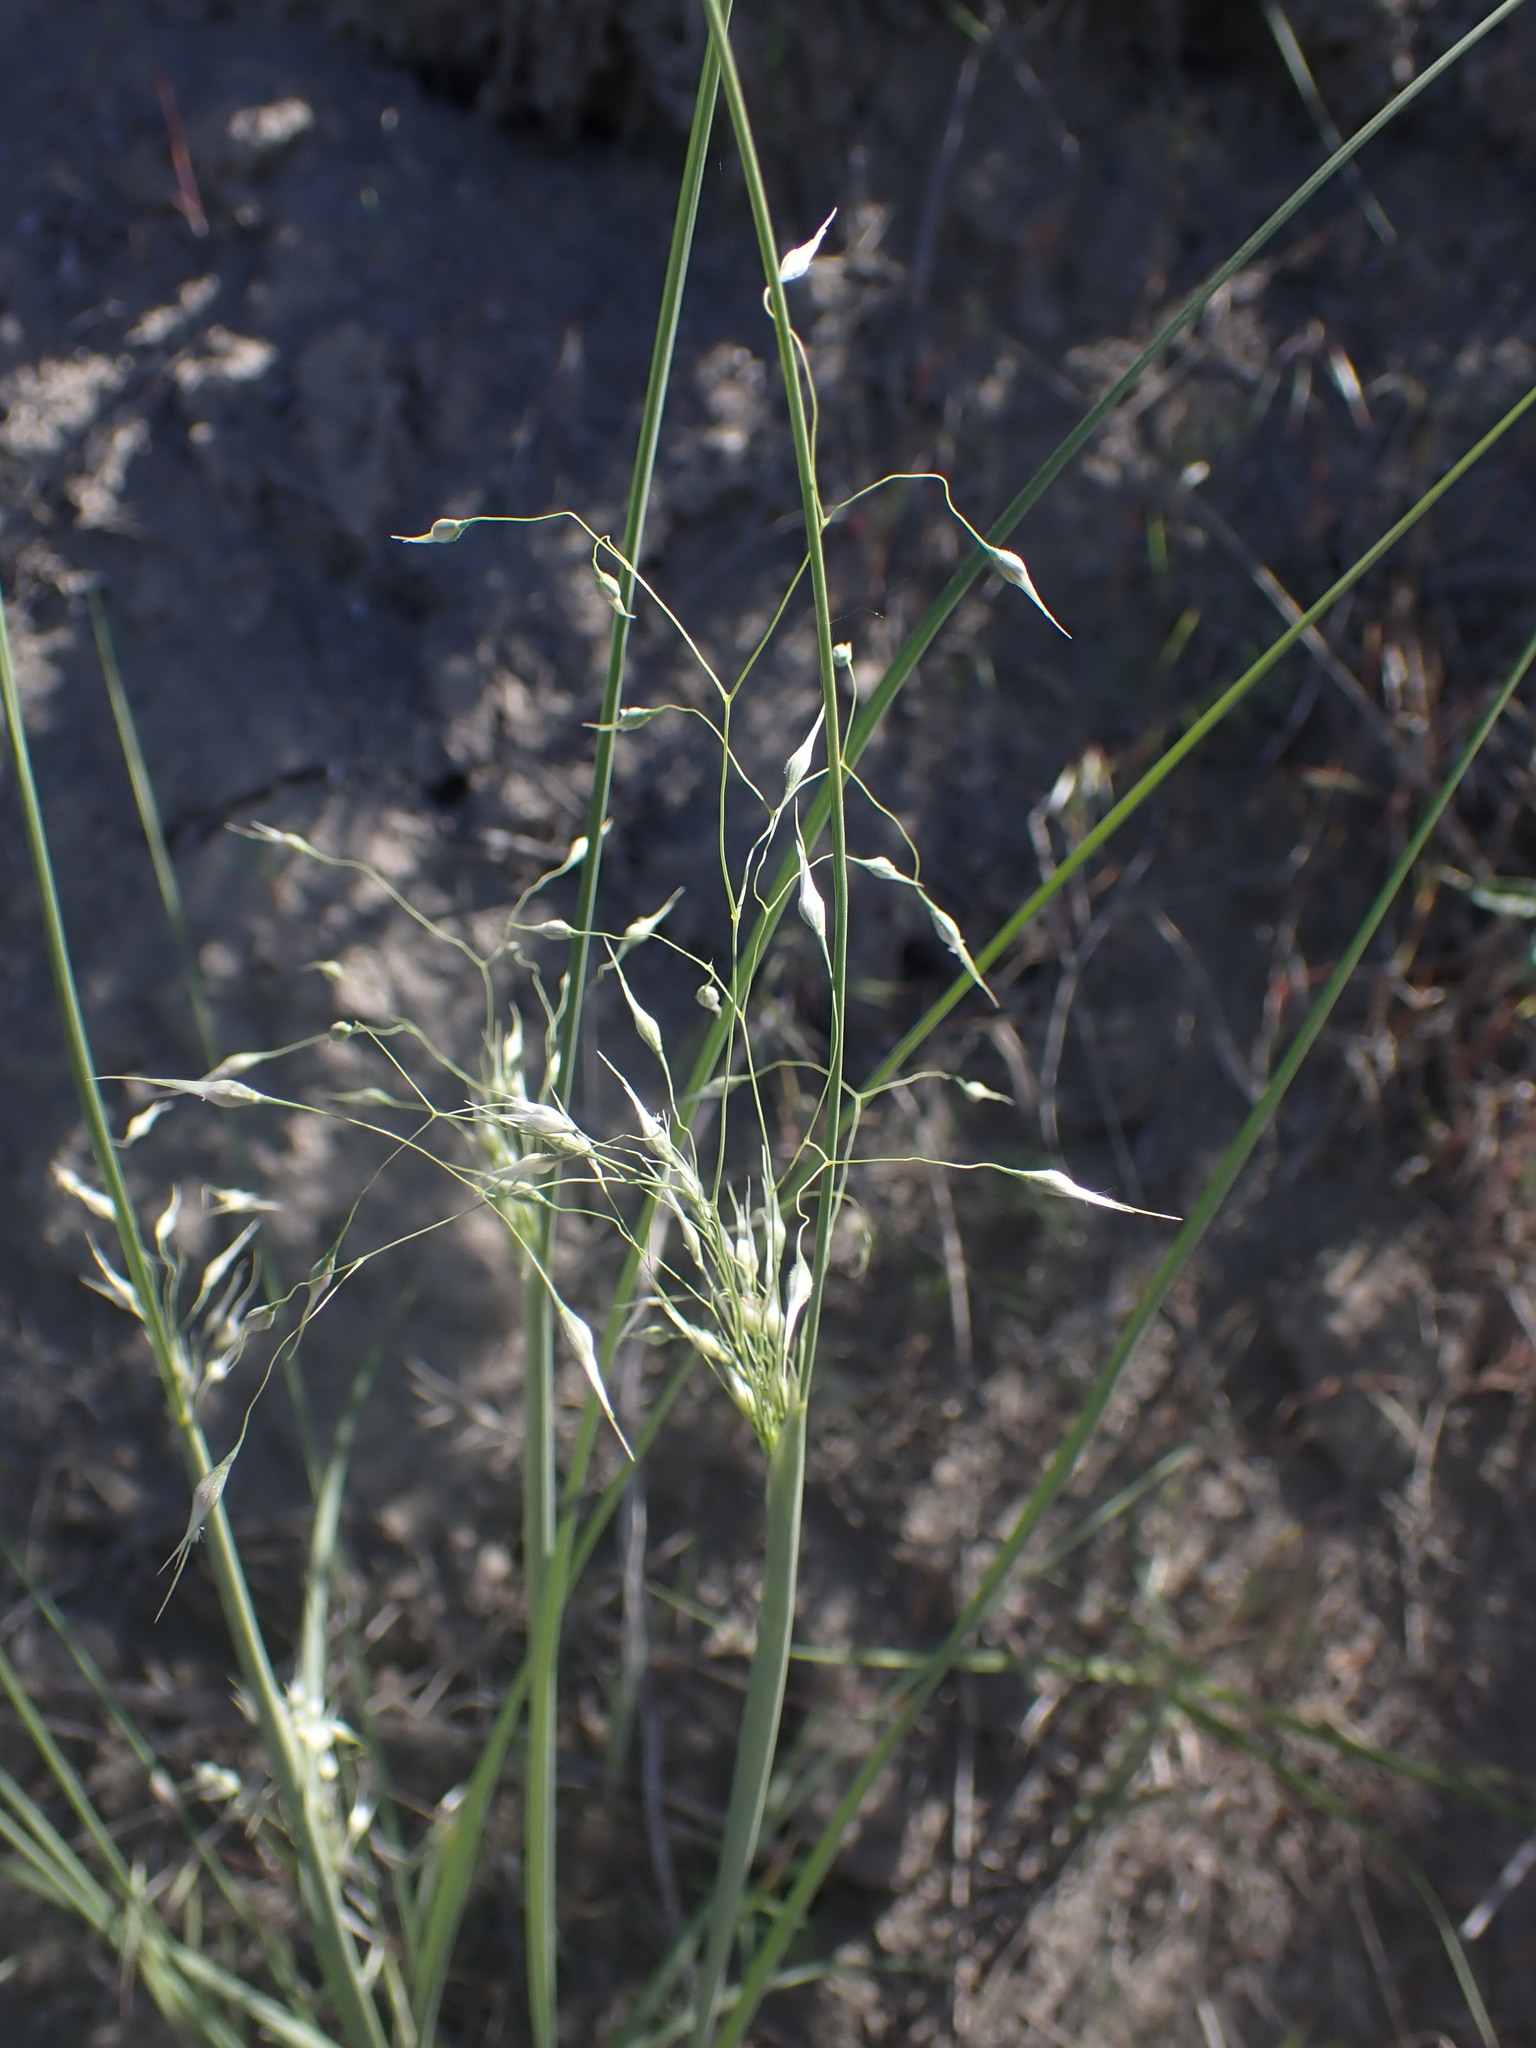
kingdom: Plantae
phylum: Tracheophyta
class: Liliopsida
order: Poales
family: Poaceae
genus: Eriocoma
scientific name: Eriocoma hymenoides
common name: Indian mountain ricegrass
